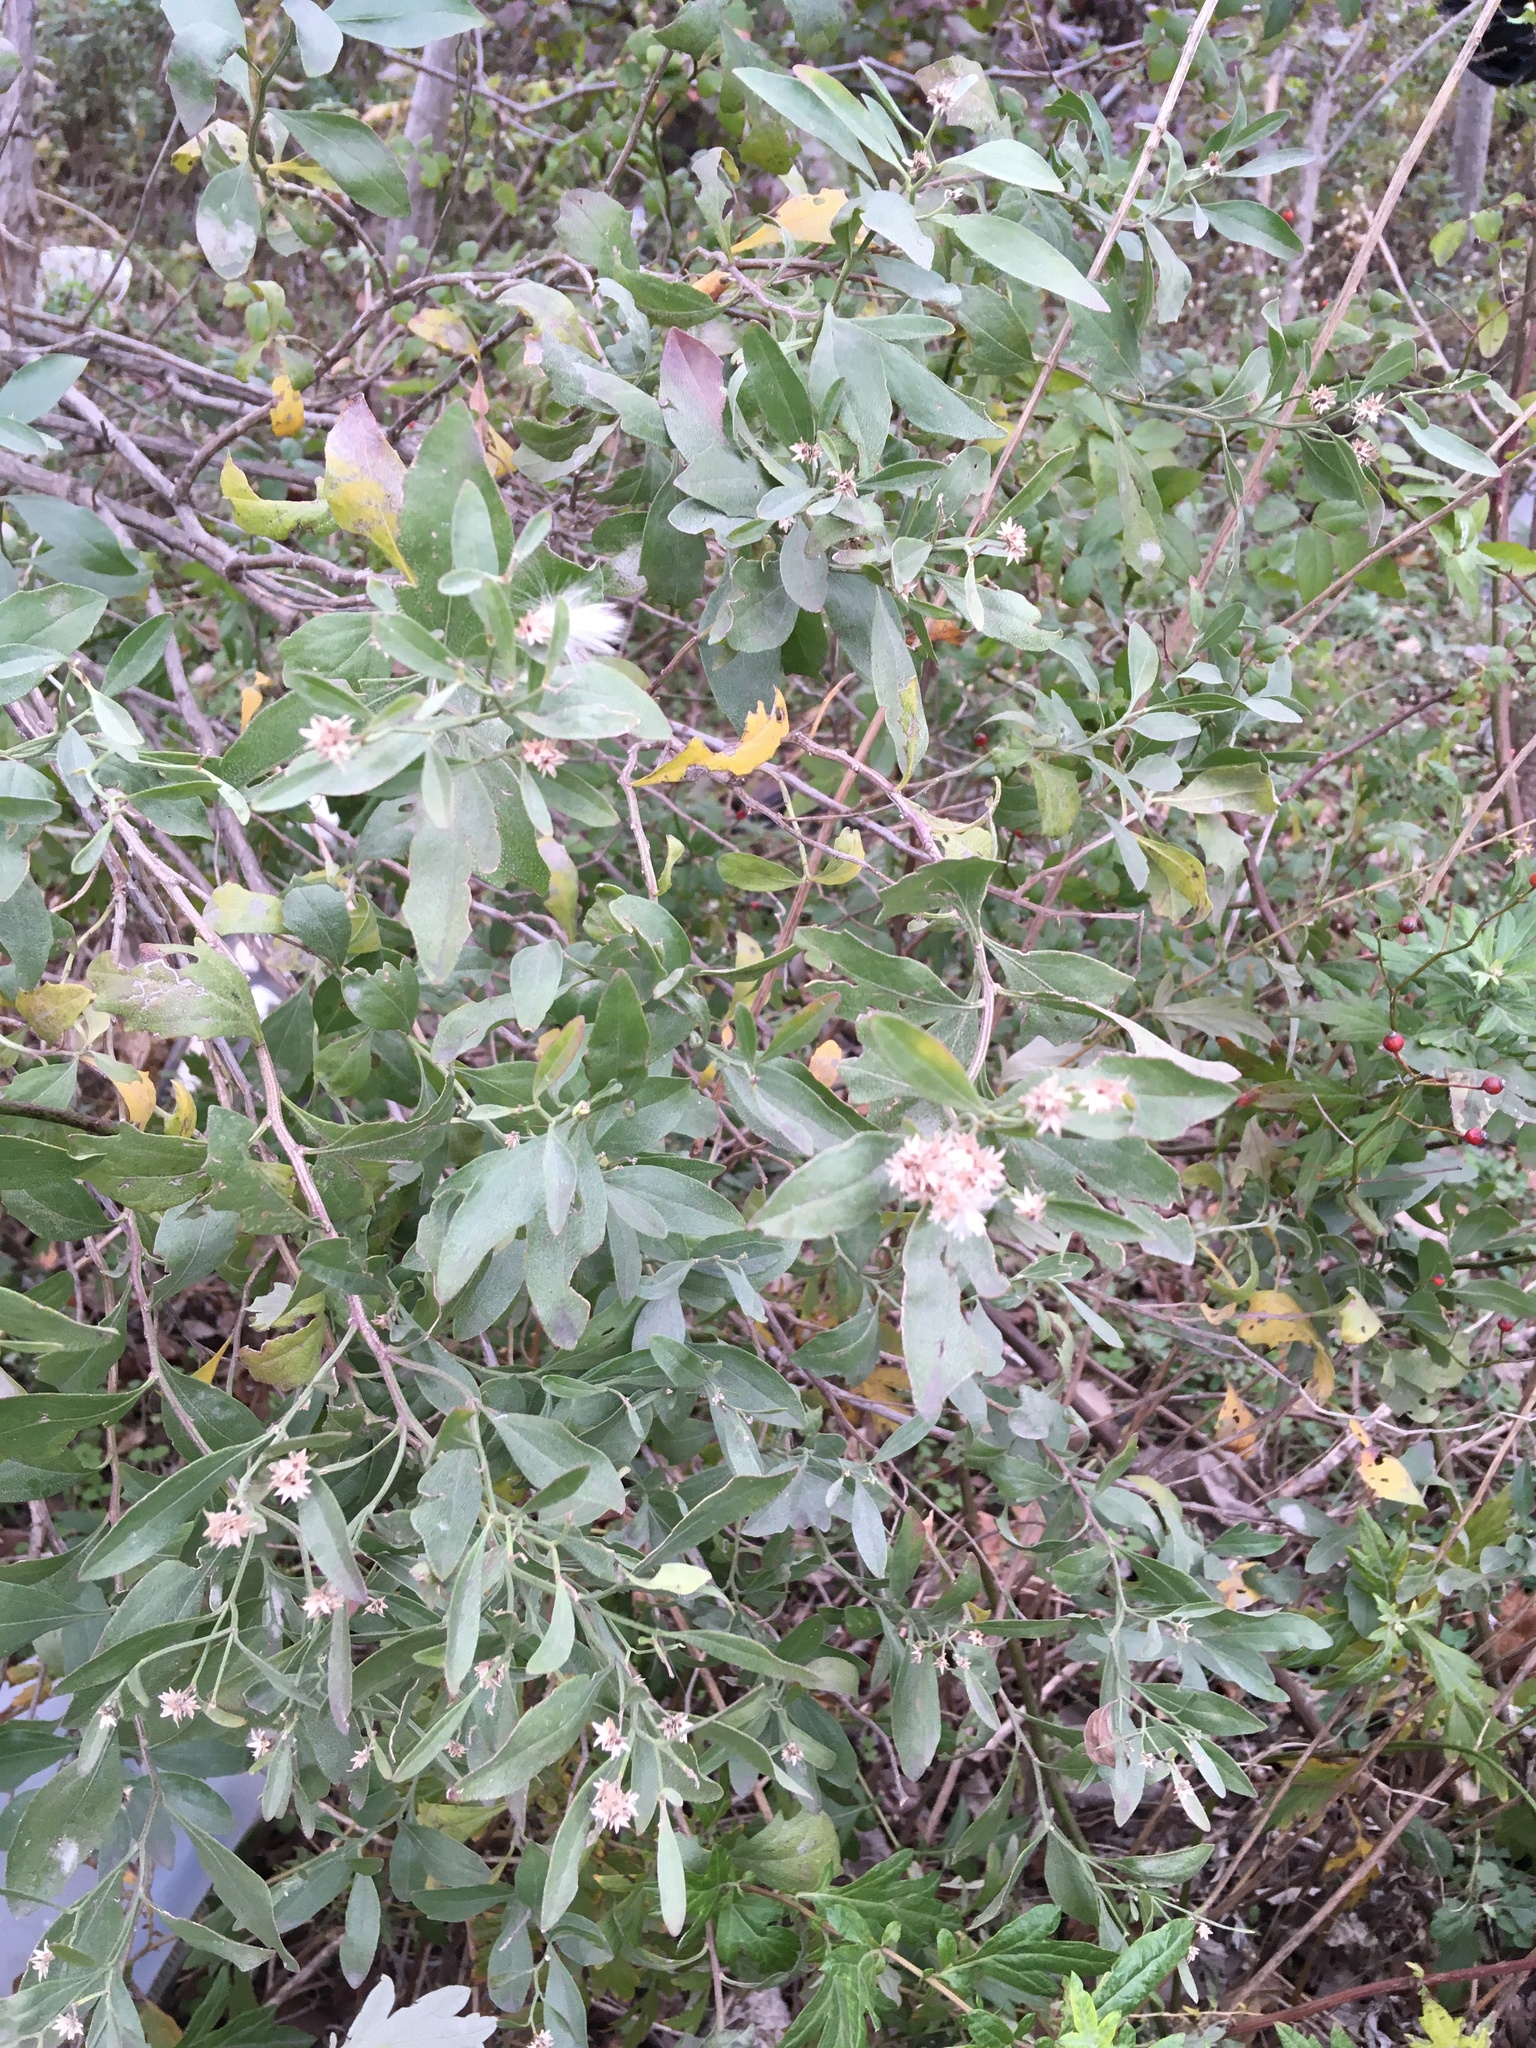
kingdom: Plantae
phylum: Tracheophyta
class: Magnoliopsida
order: Asterales
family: Asteraceae
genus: Baccharis
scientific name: Baccharis halimifolia
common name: Eastern baccharis
